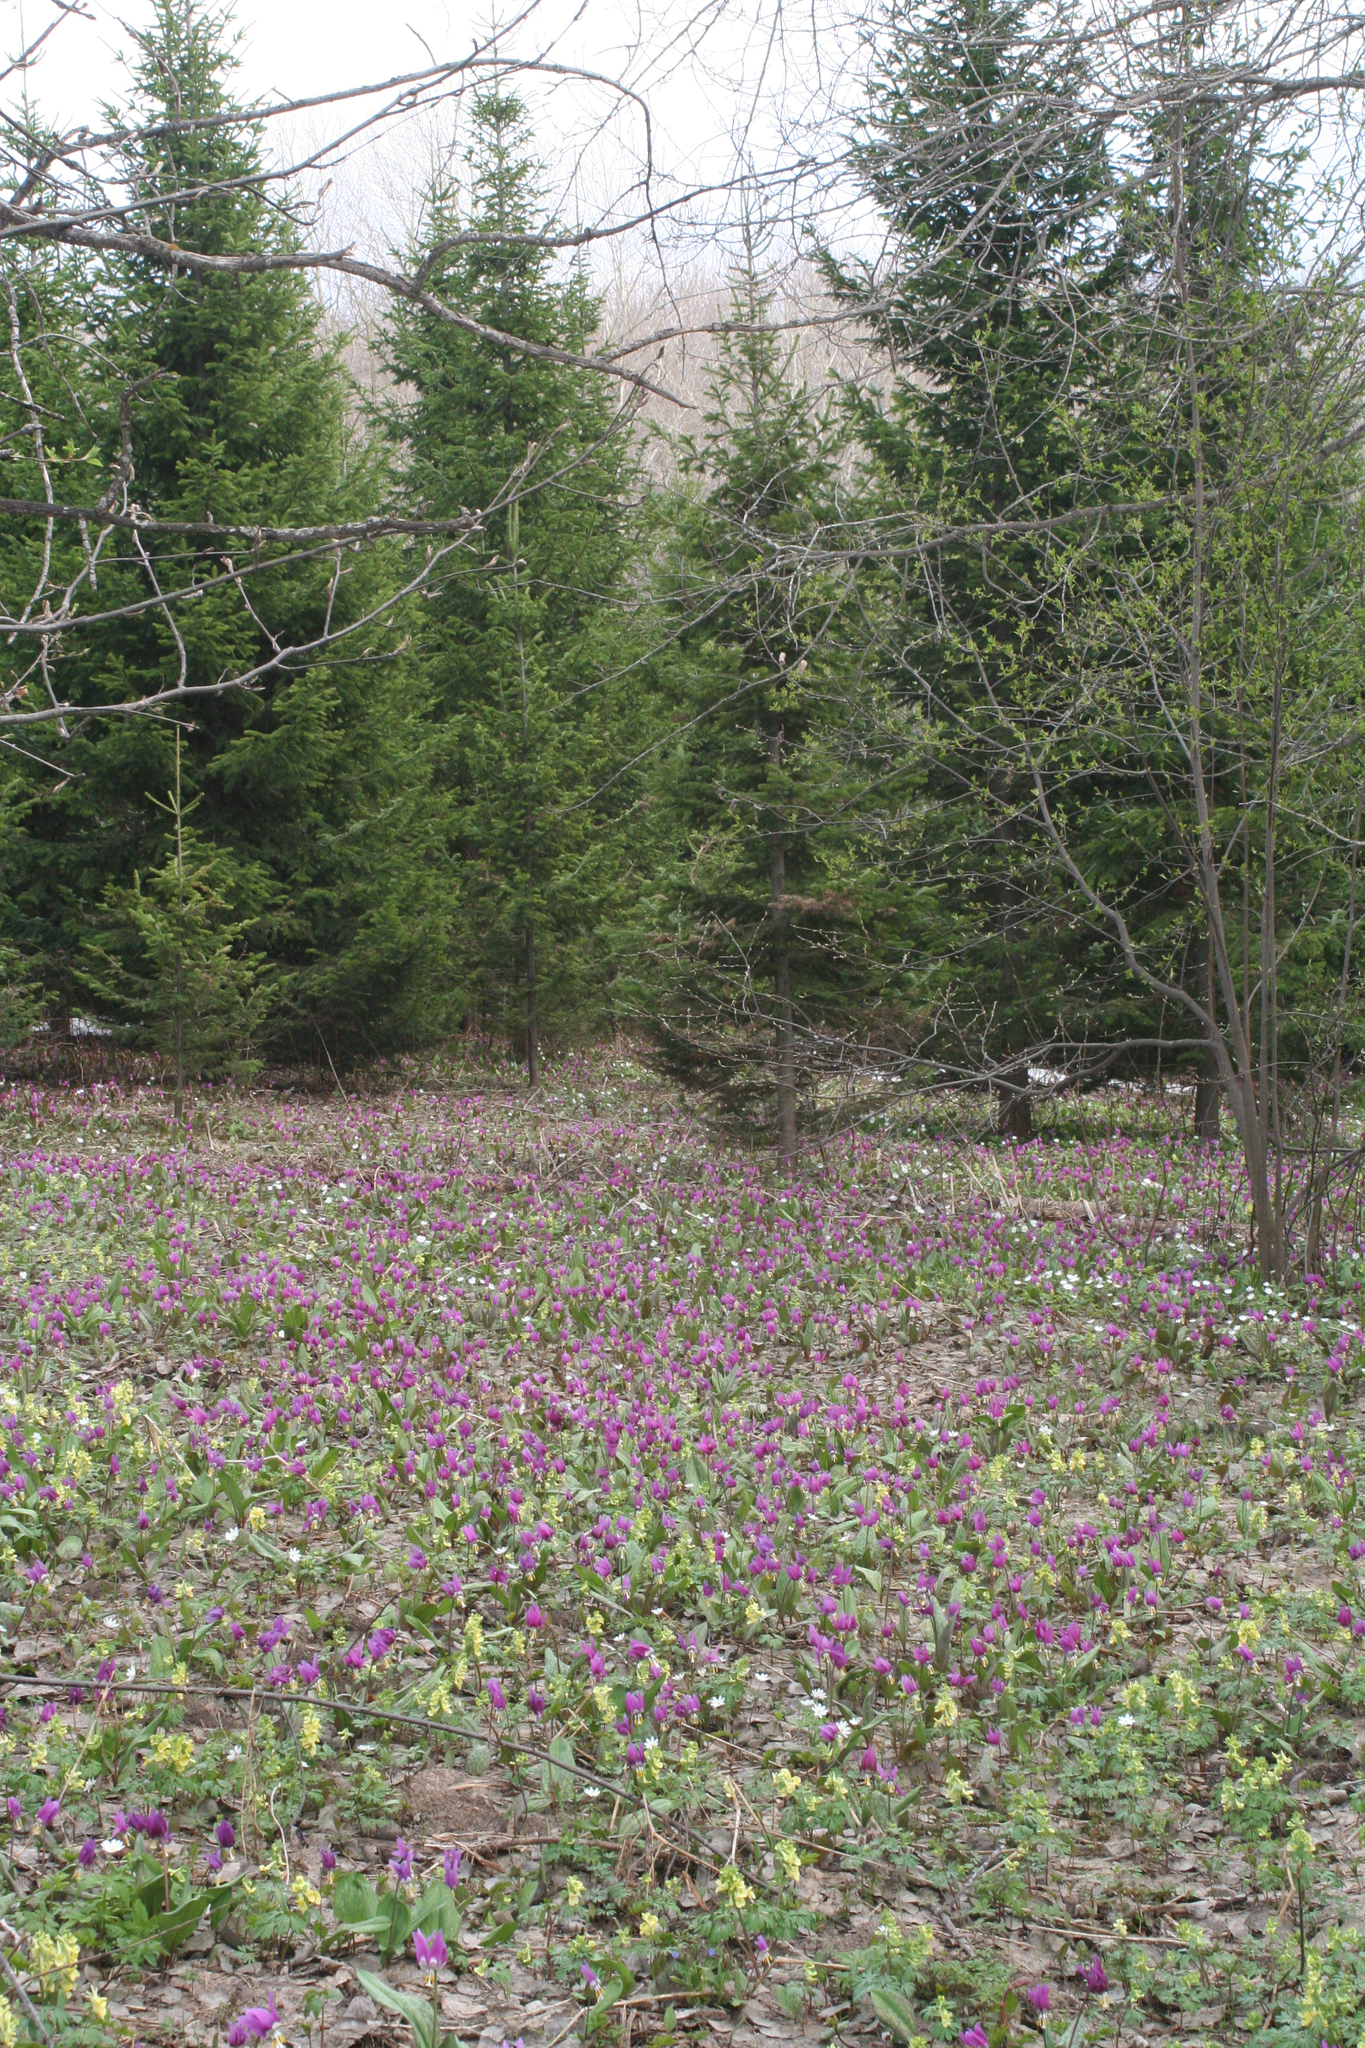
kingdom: Plantae
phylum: Tracheophyta
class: Pinopsida
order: Pinales
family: Pinaceae
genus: Abies
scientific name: Abies sibirica
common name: Siberian fir
